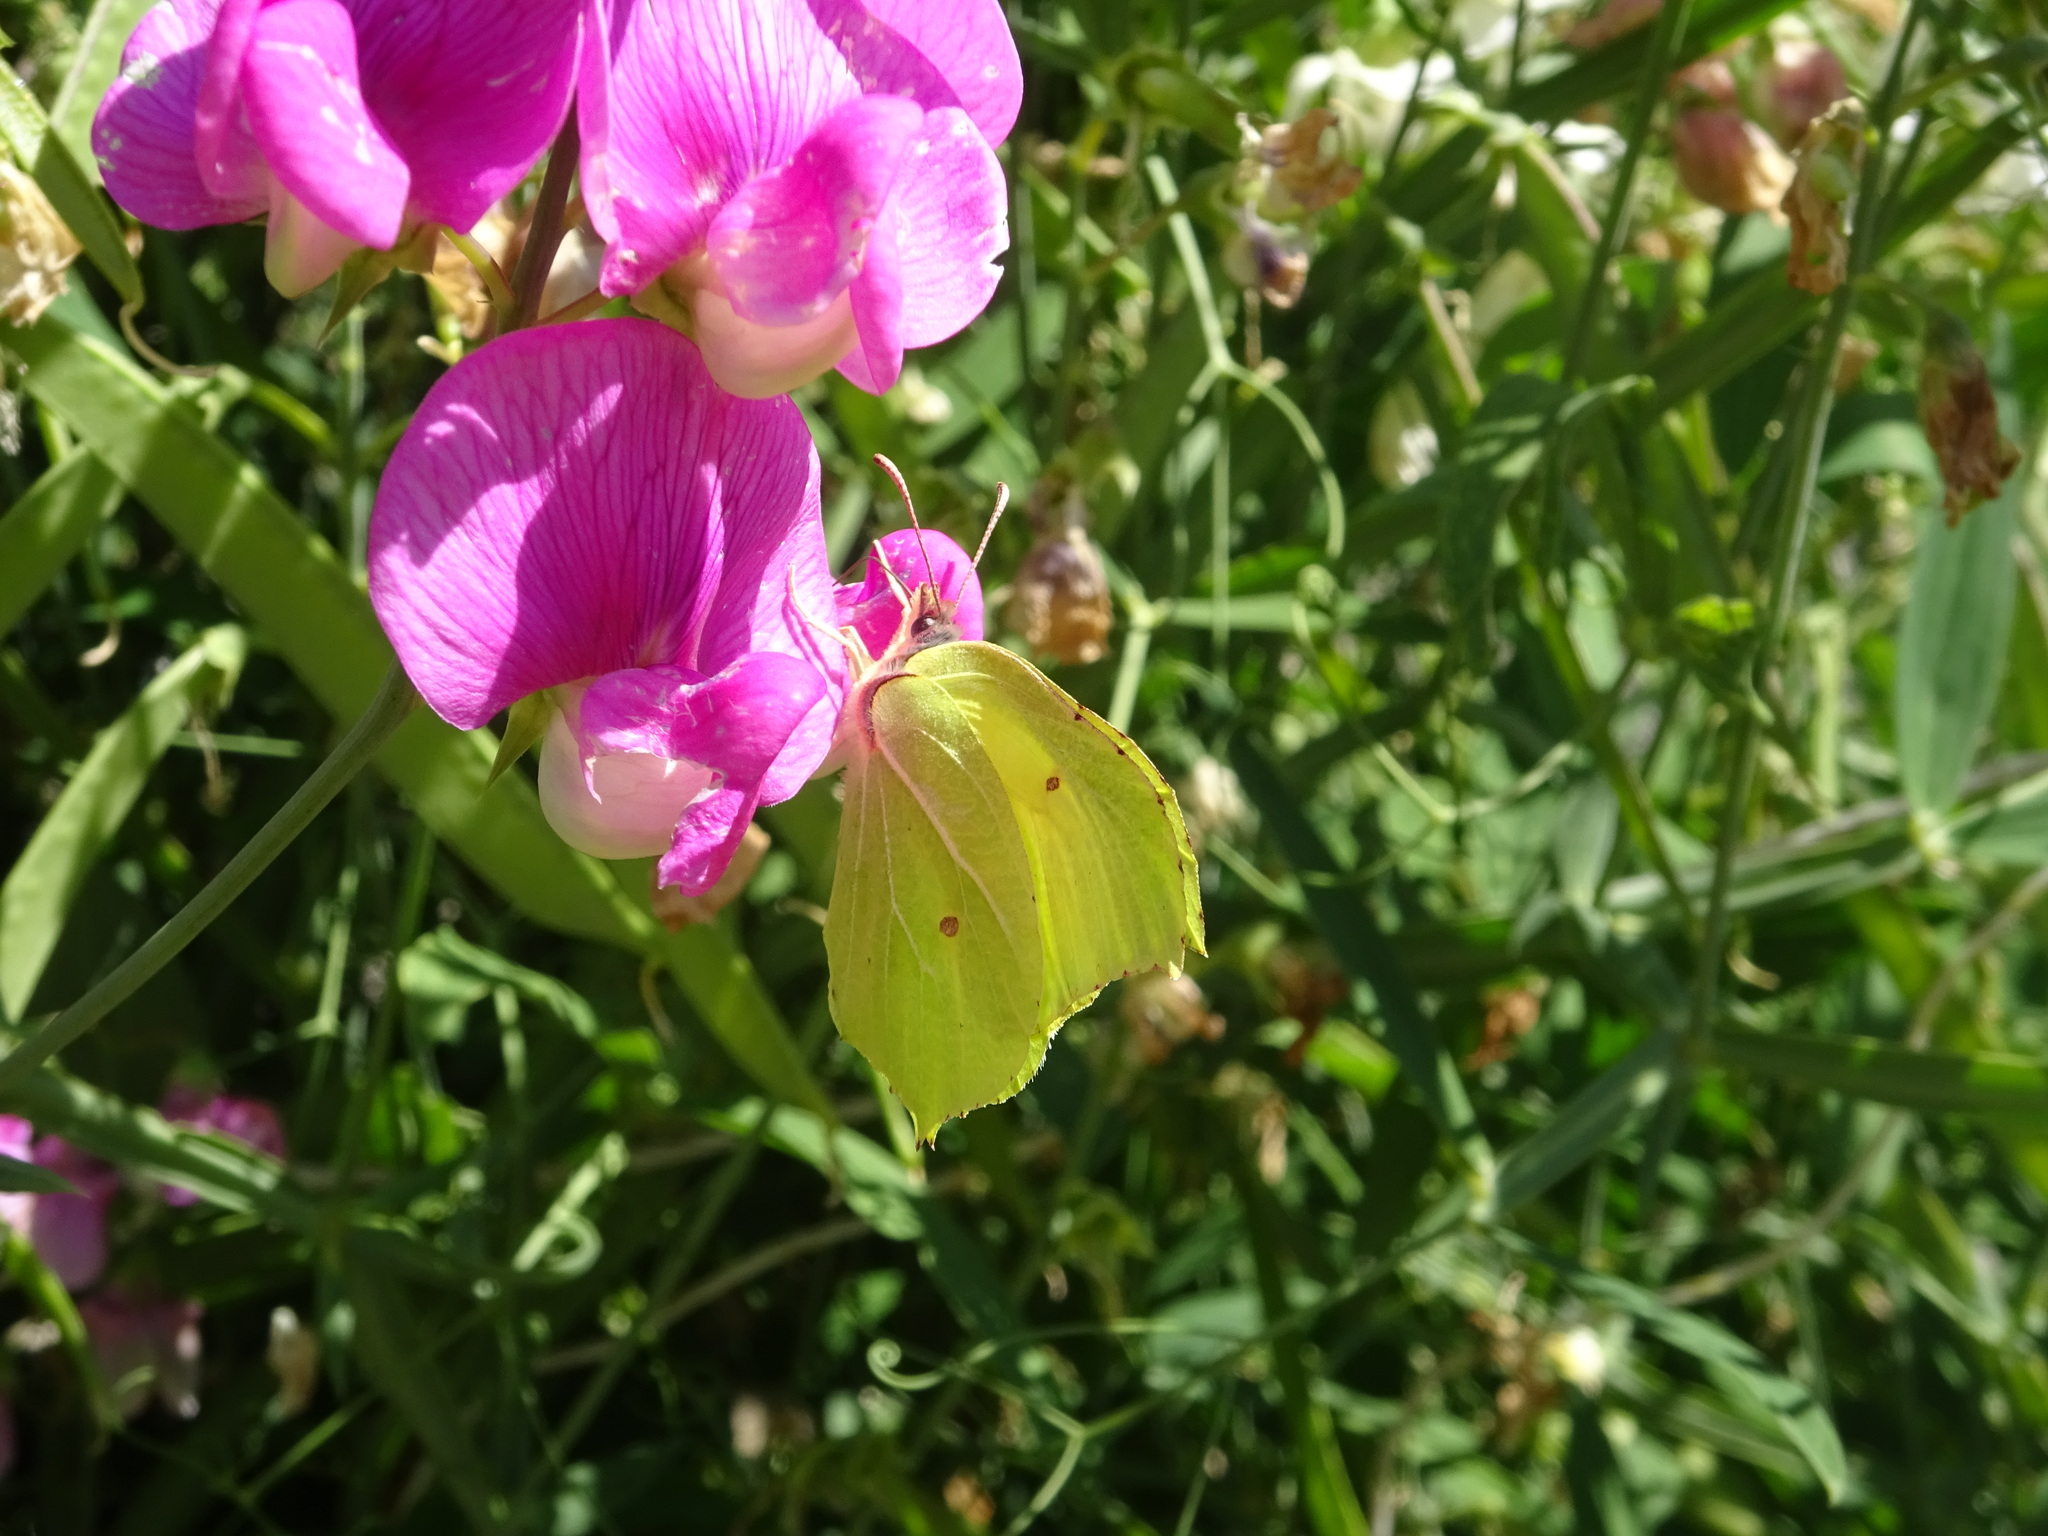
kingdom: Animalia
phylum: Arthropoda
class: Insecta
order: Lepidoptera
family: Pieridae
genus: Gonepteryx
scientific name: Gonepteryx rhamni
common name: Brimstone
